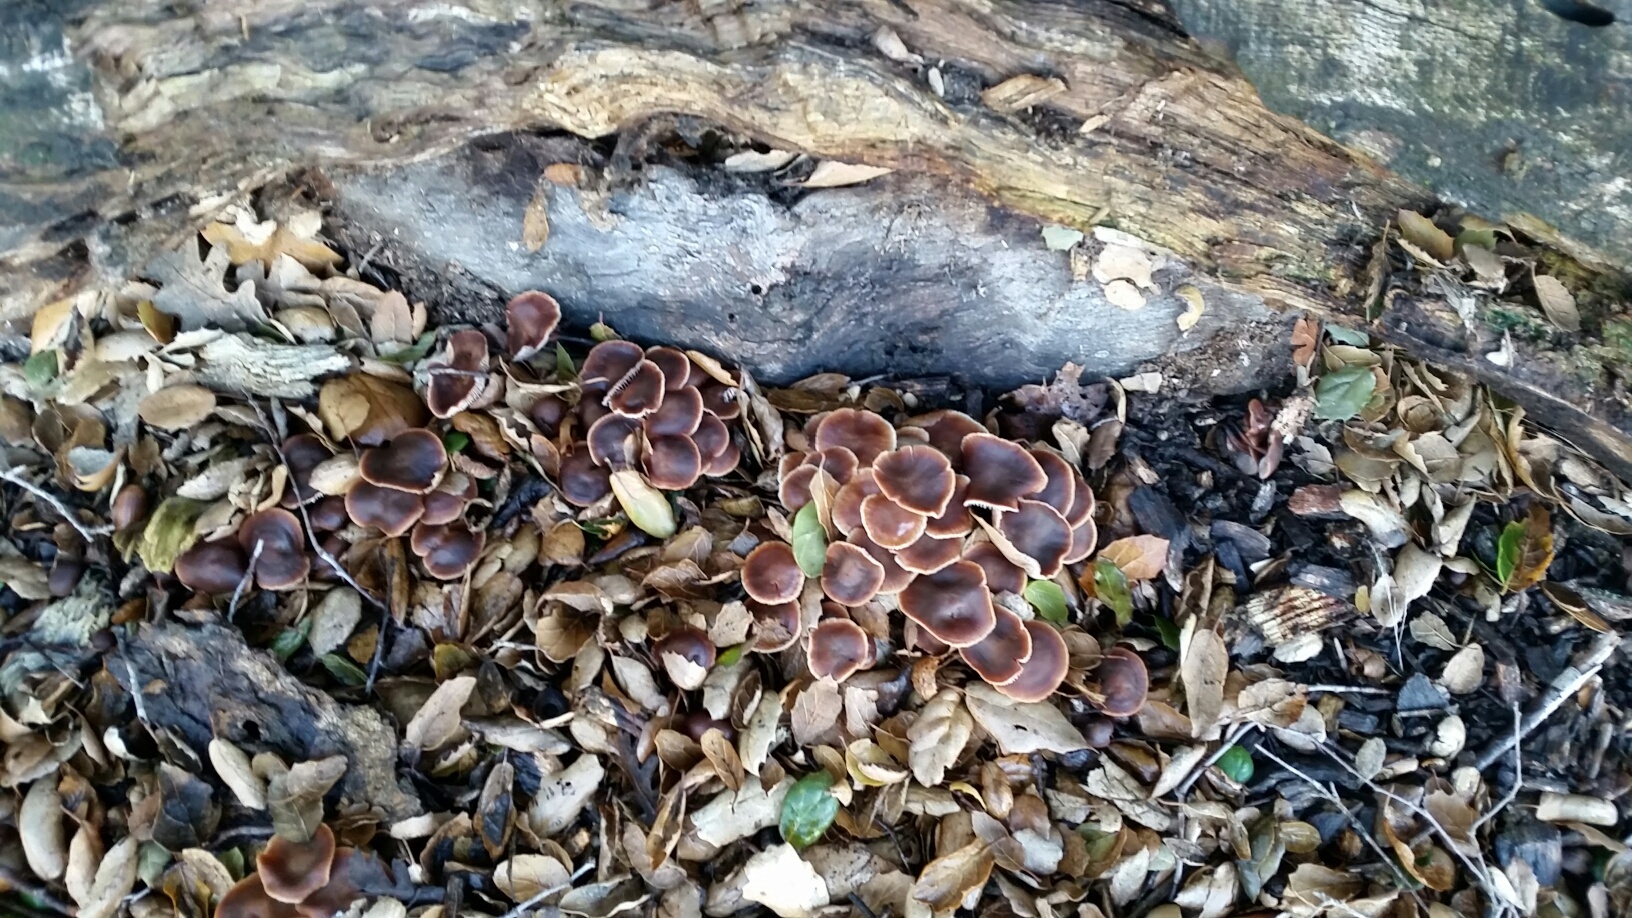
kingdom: Fungi
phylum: Basidiomycota
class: Agaricomycetes
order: Agaricales
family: Omphalotaceae
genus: Gymnopus
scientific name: Gymnopus brassicolens
